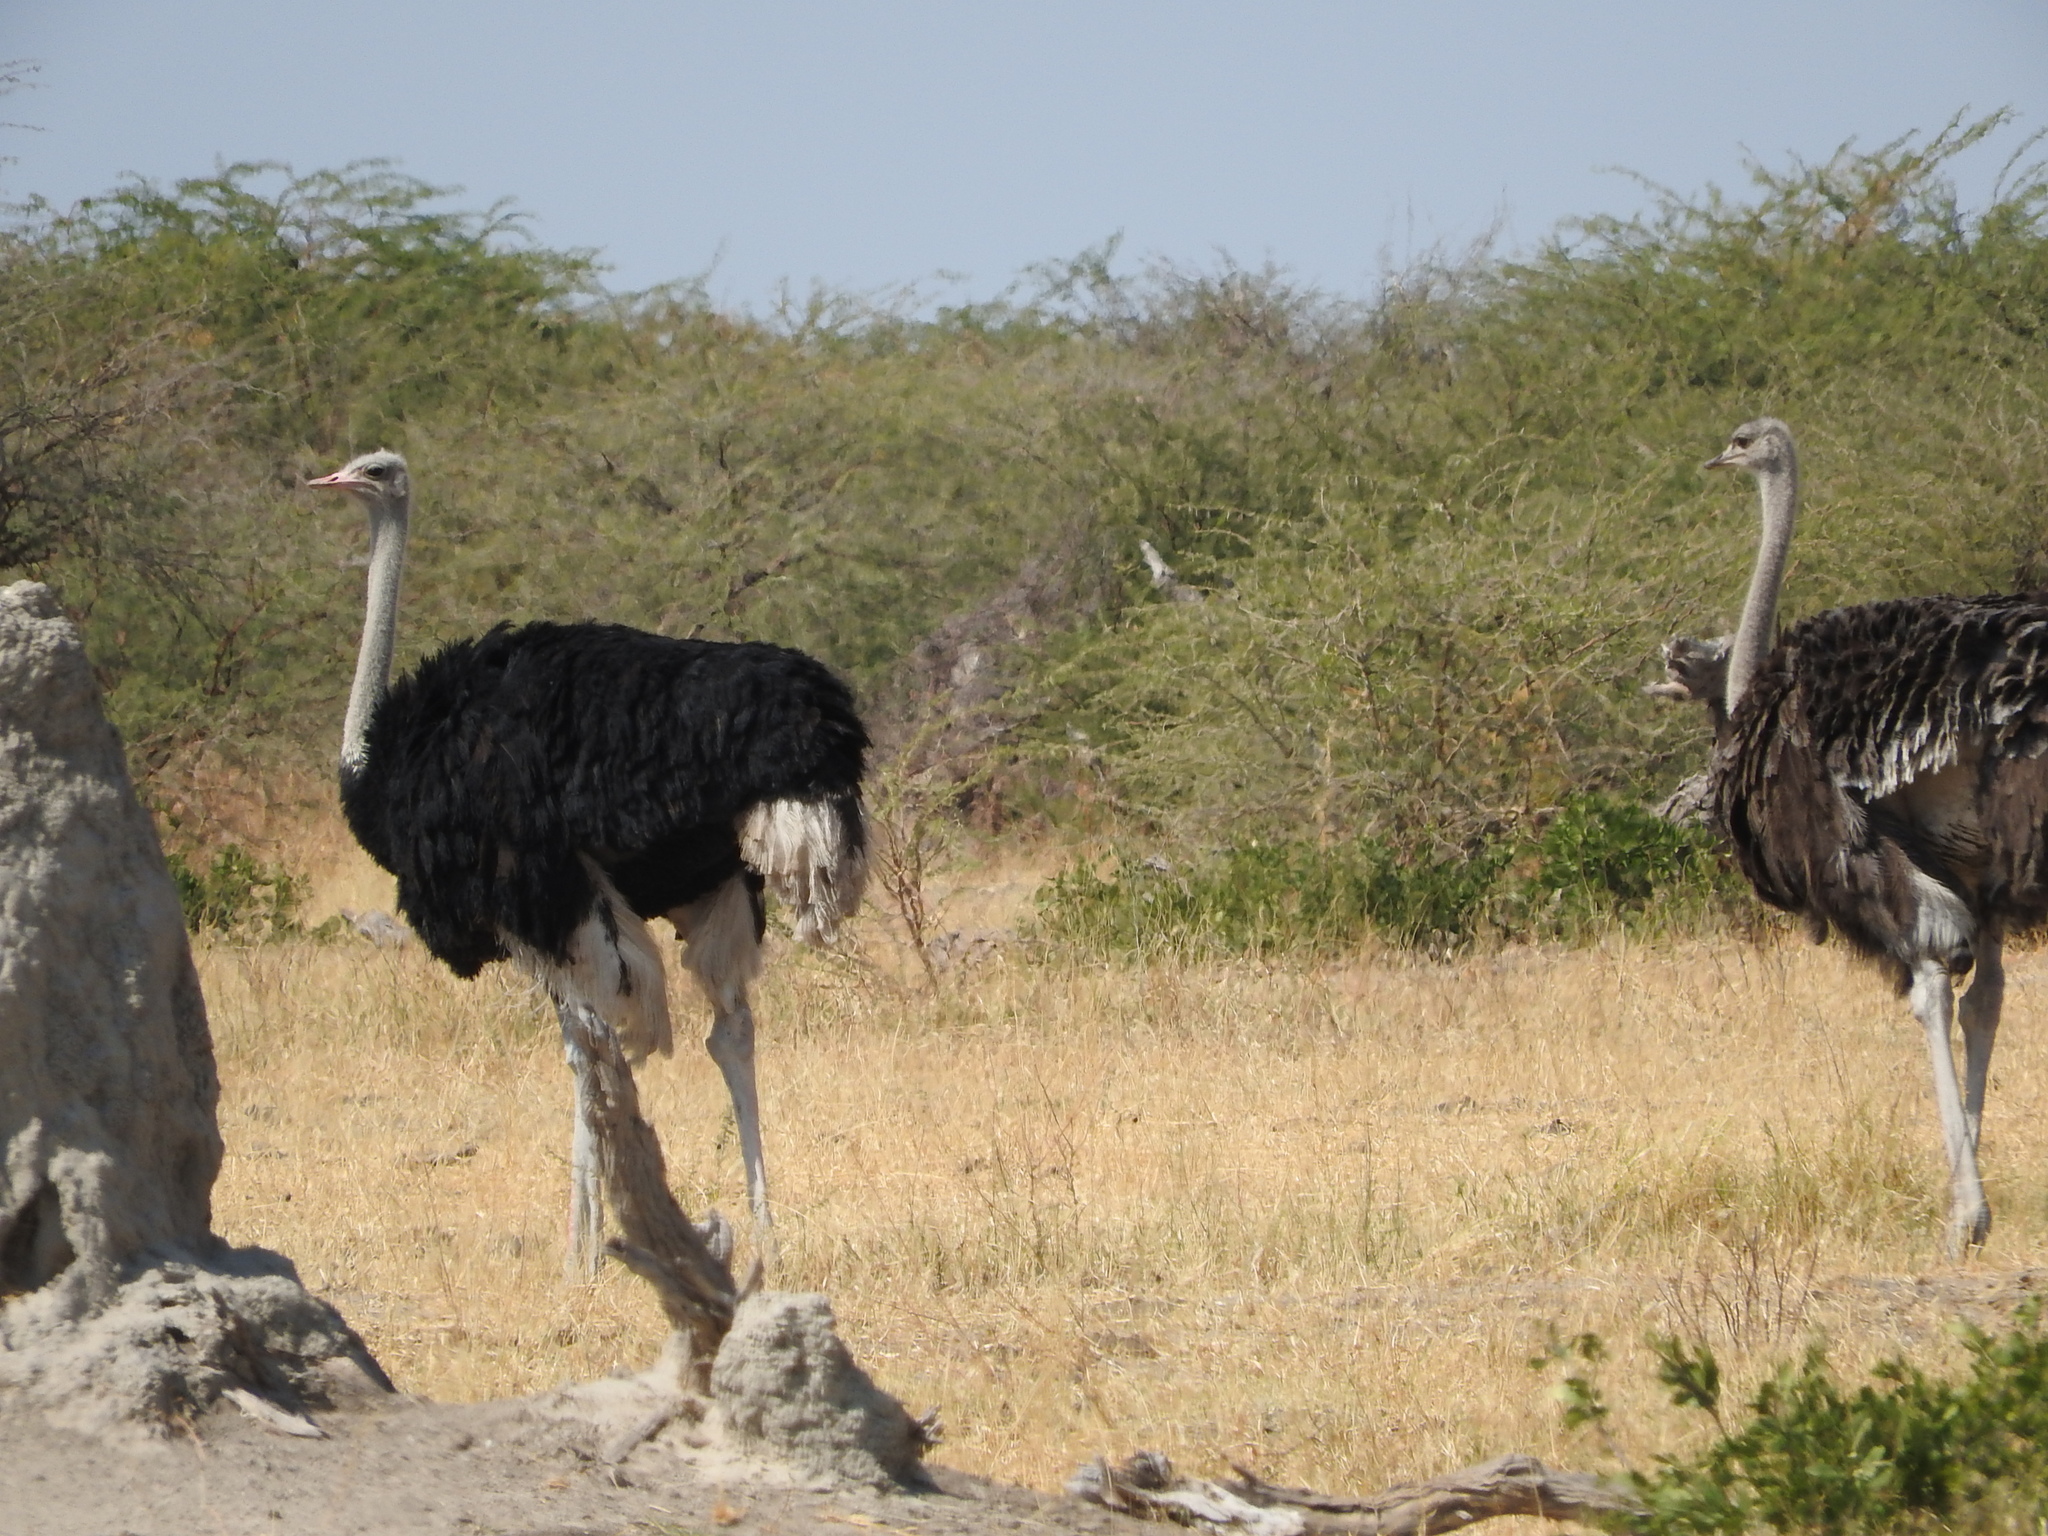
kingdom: Animalia
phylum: Chordata
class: Aves
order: Struthioniformes
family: Struthionidae
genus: Struthio
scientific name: Struthio camelus
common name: Common ostrich
